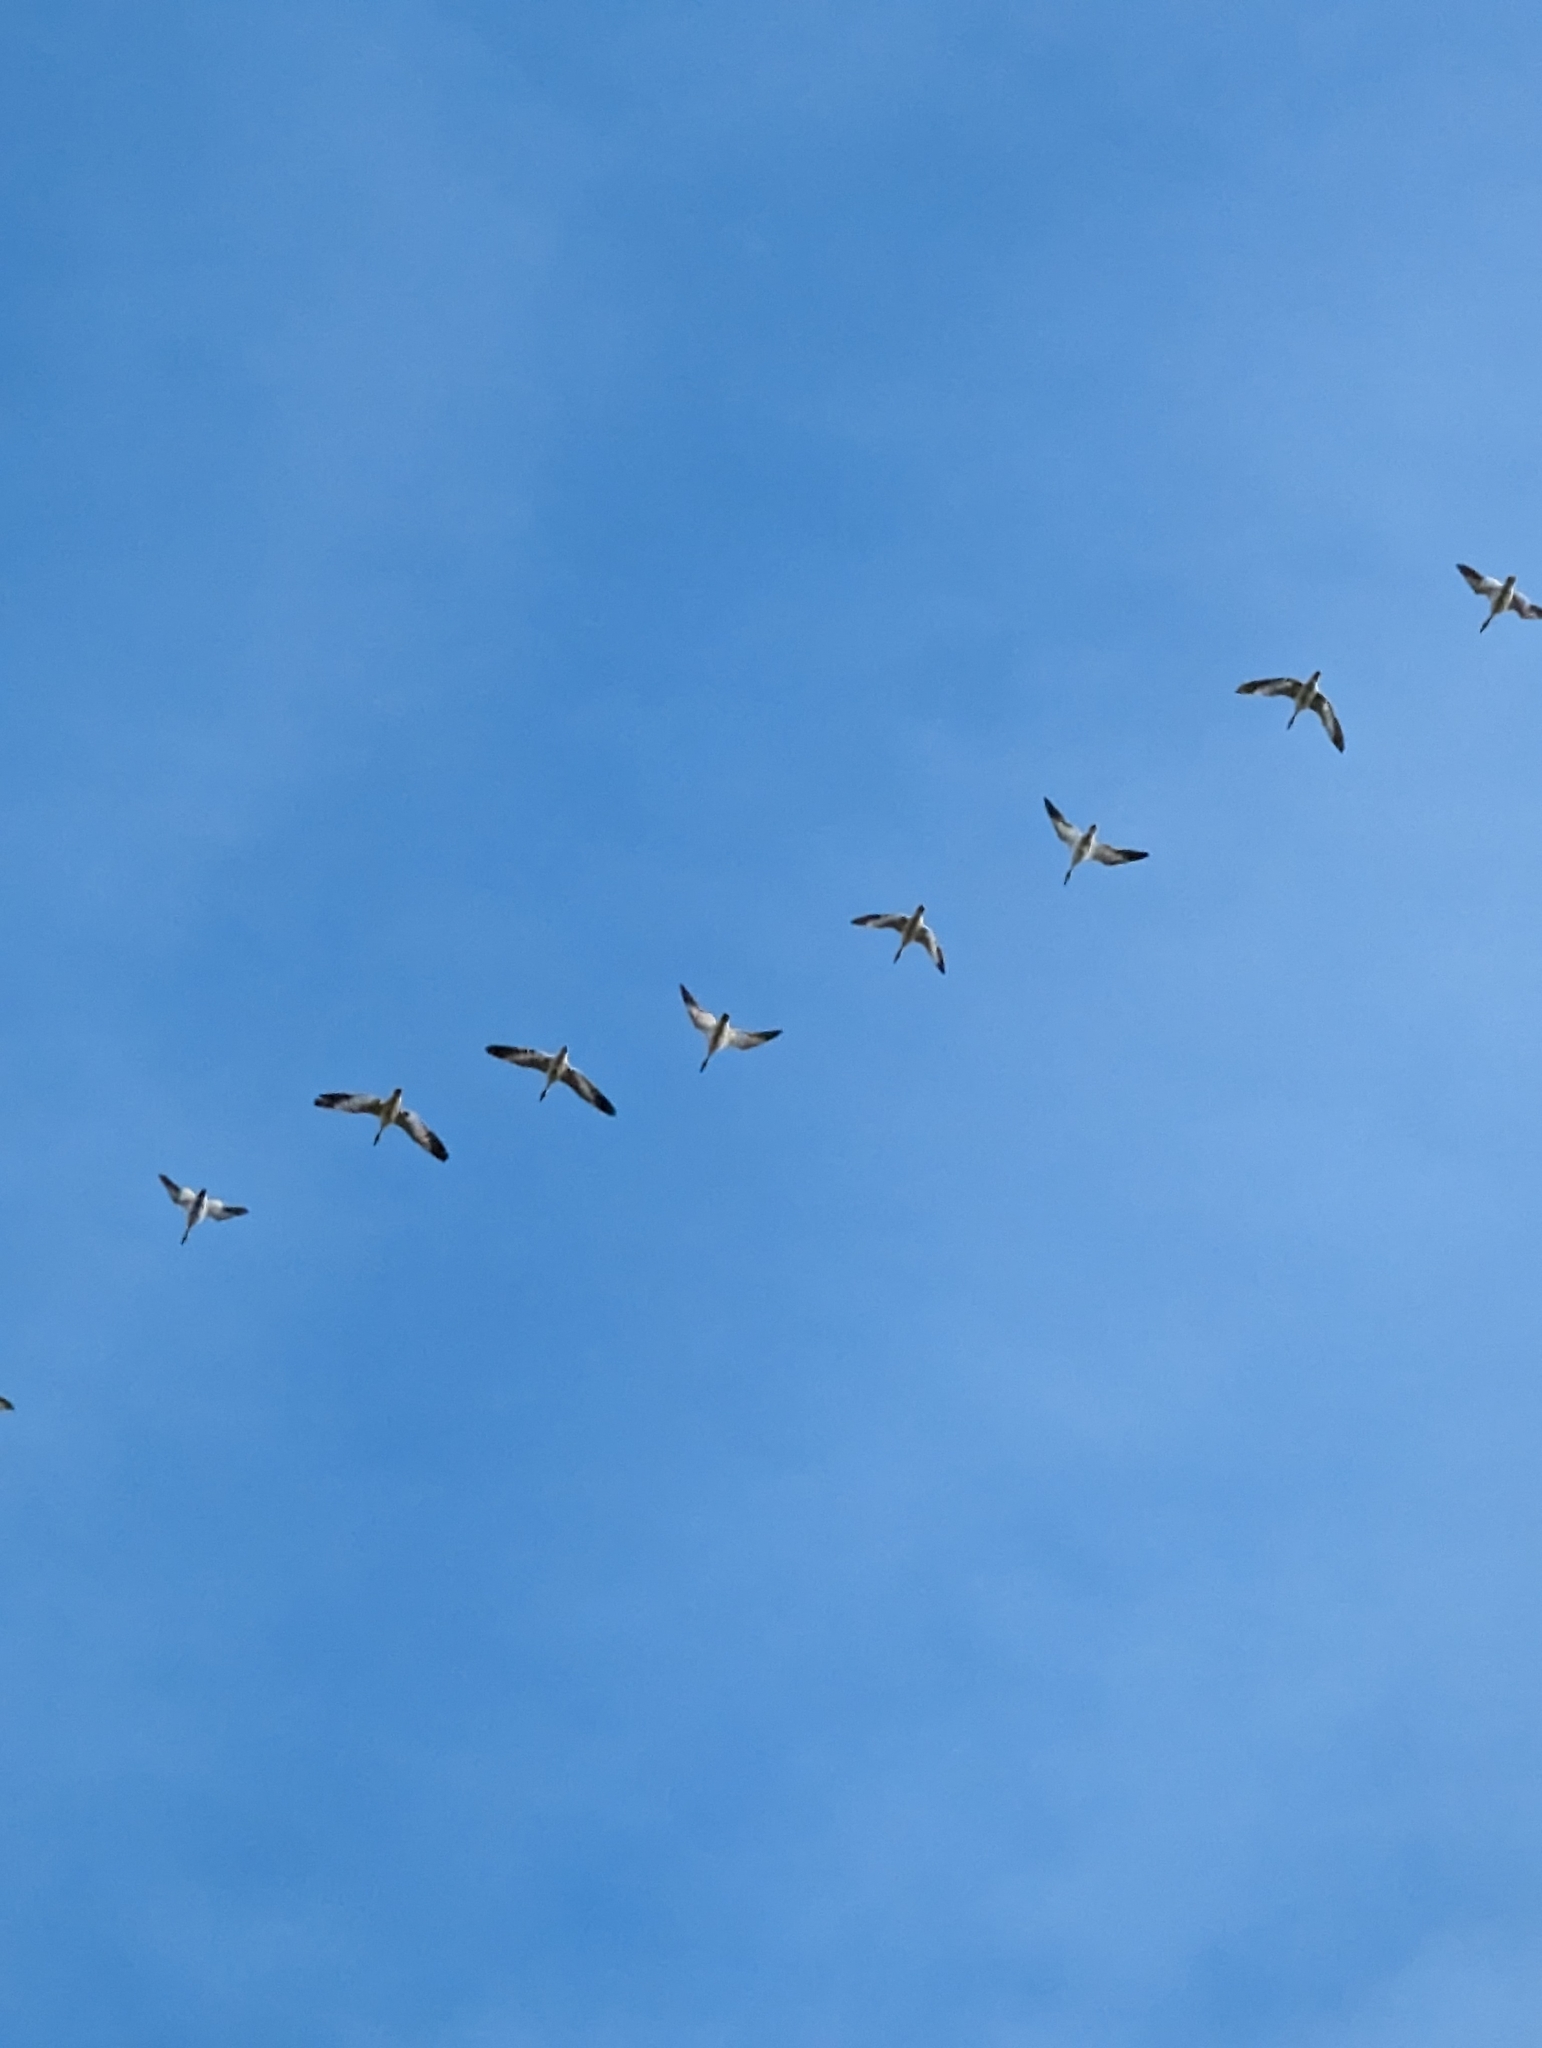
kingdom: Animalia
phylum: Chordata
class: Aves
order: Anseriformes
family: Anatidae
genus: Anser
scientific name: Anser caerulescens
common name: Snow goose
